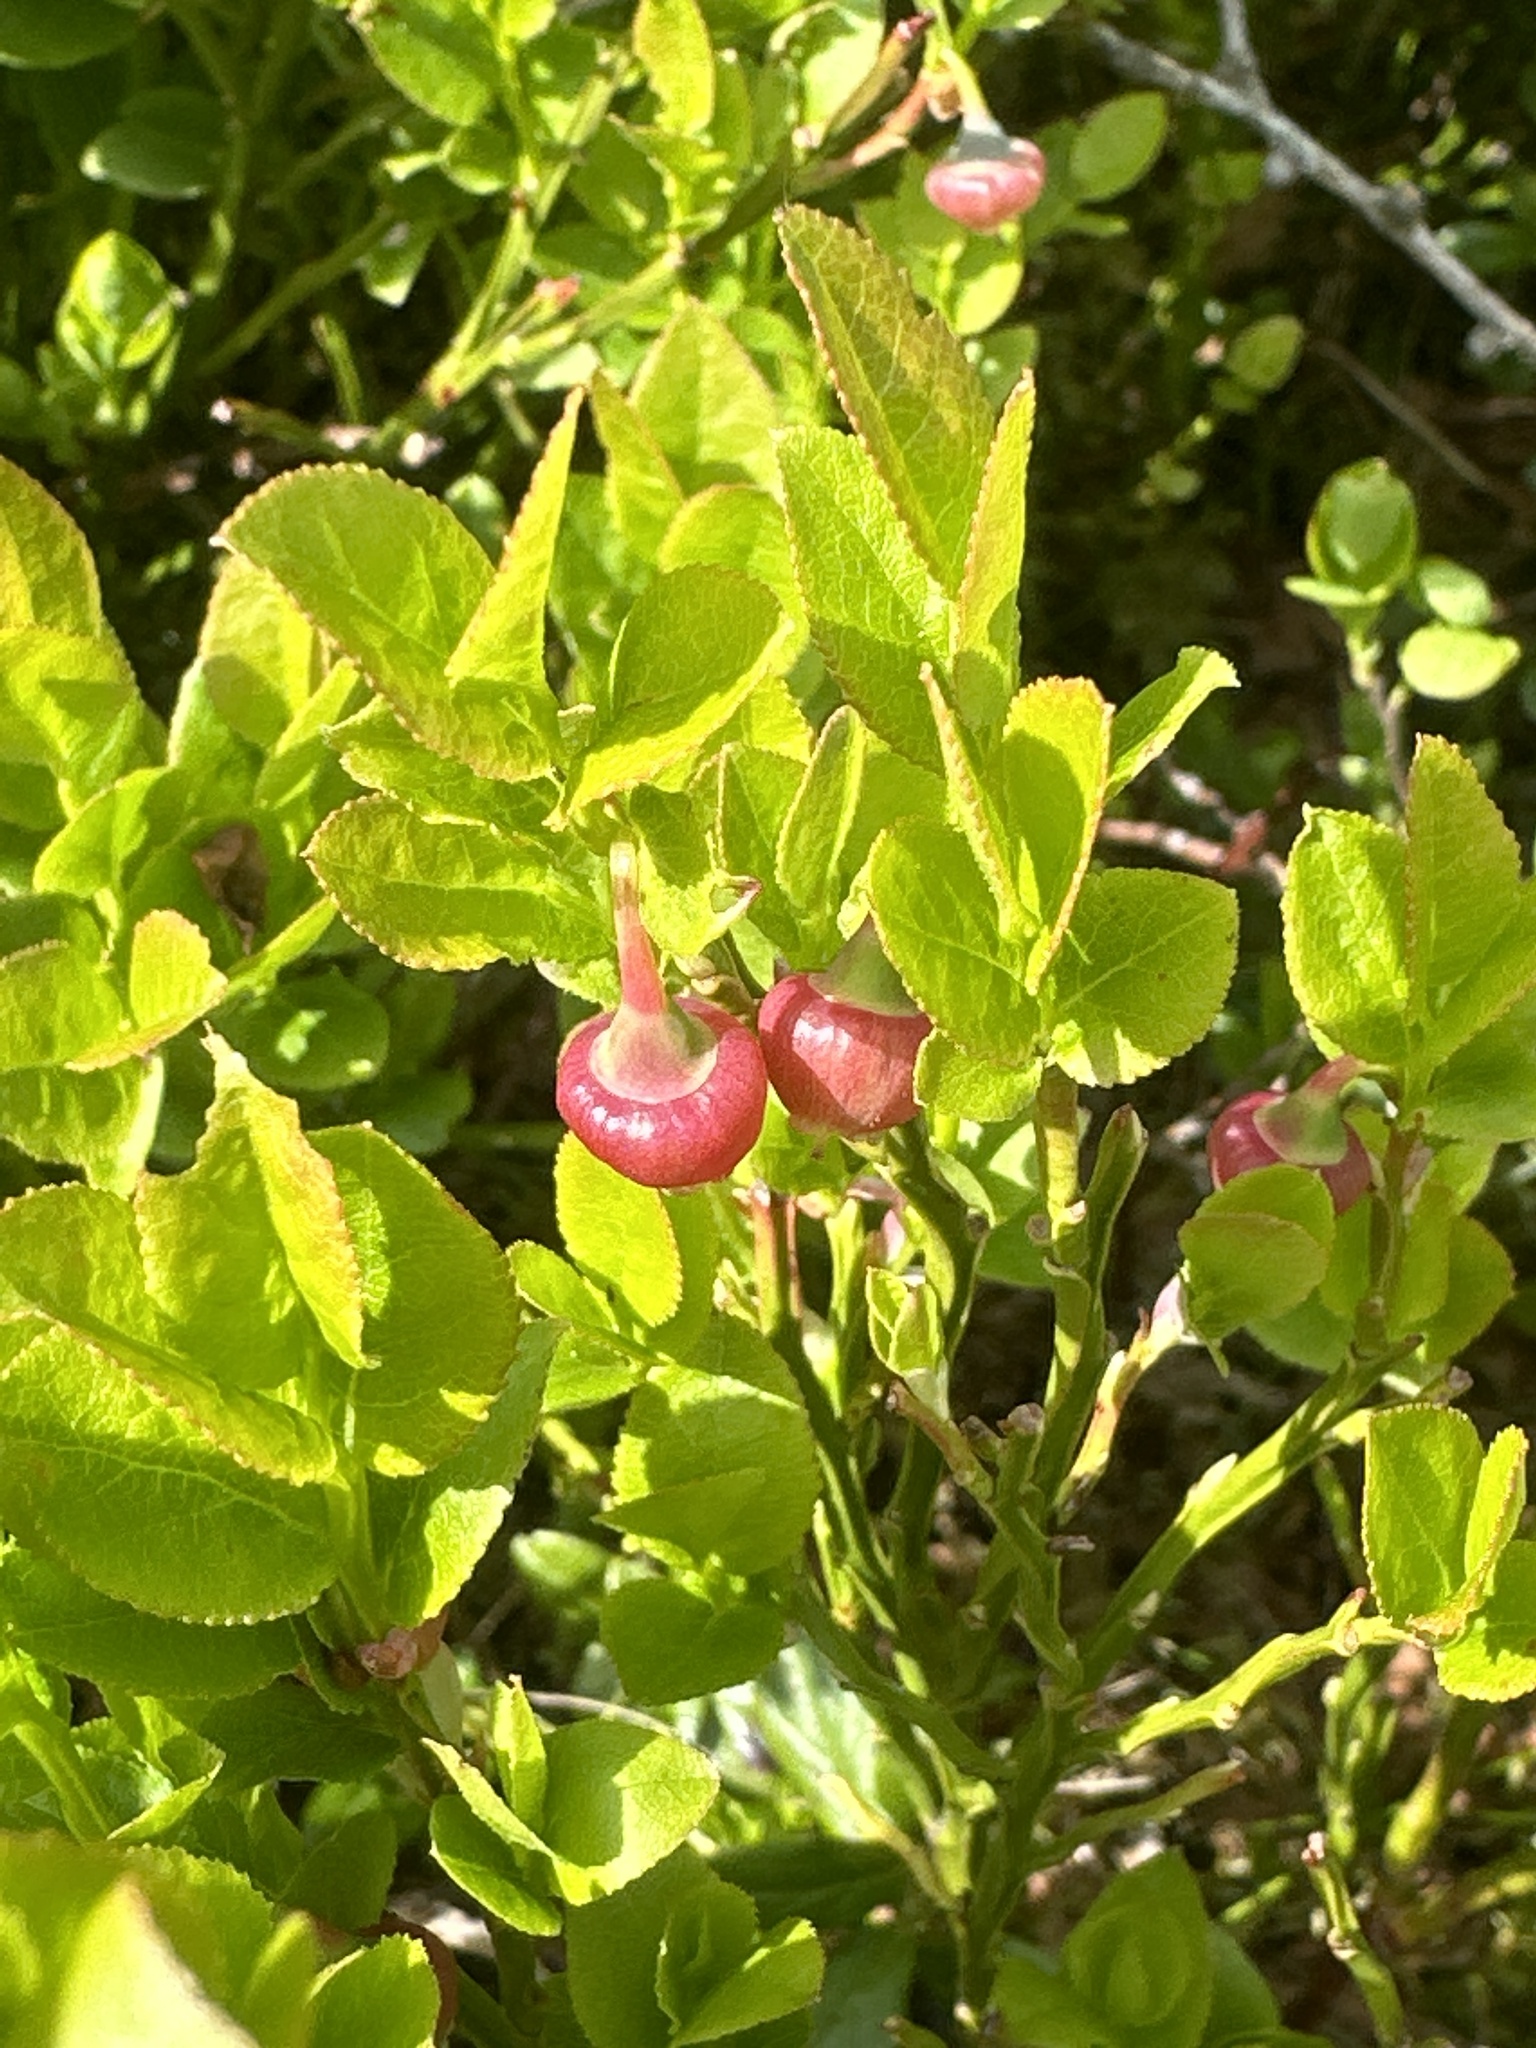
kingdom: Plantae
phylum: Tracheophyta
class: Magnoliopsida
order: Ericales
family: Ericaceae
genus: Vaccinium
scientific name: Vaccinium myrtillus
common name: Bilberry
